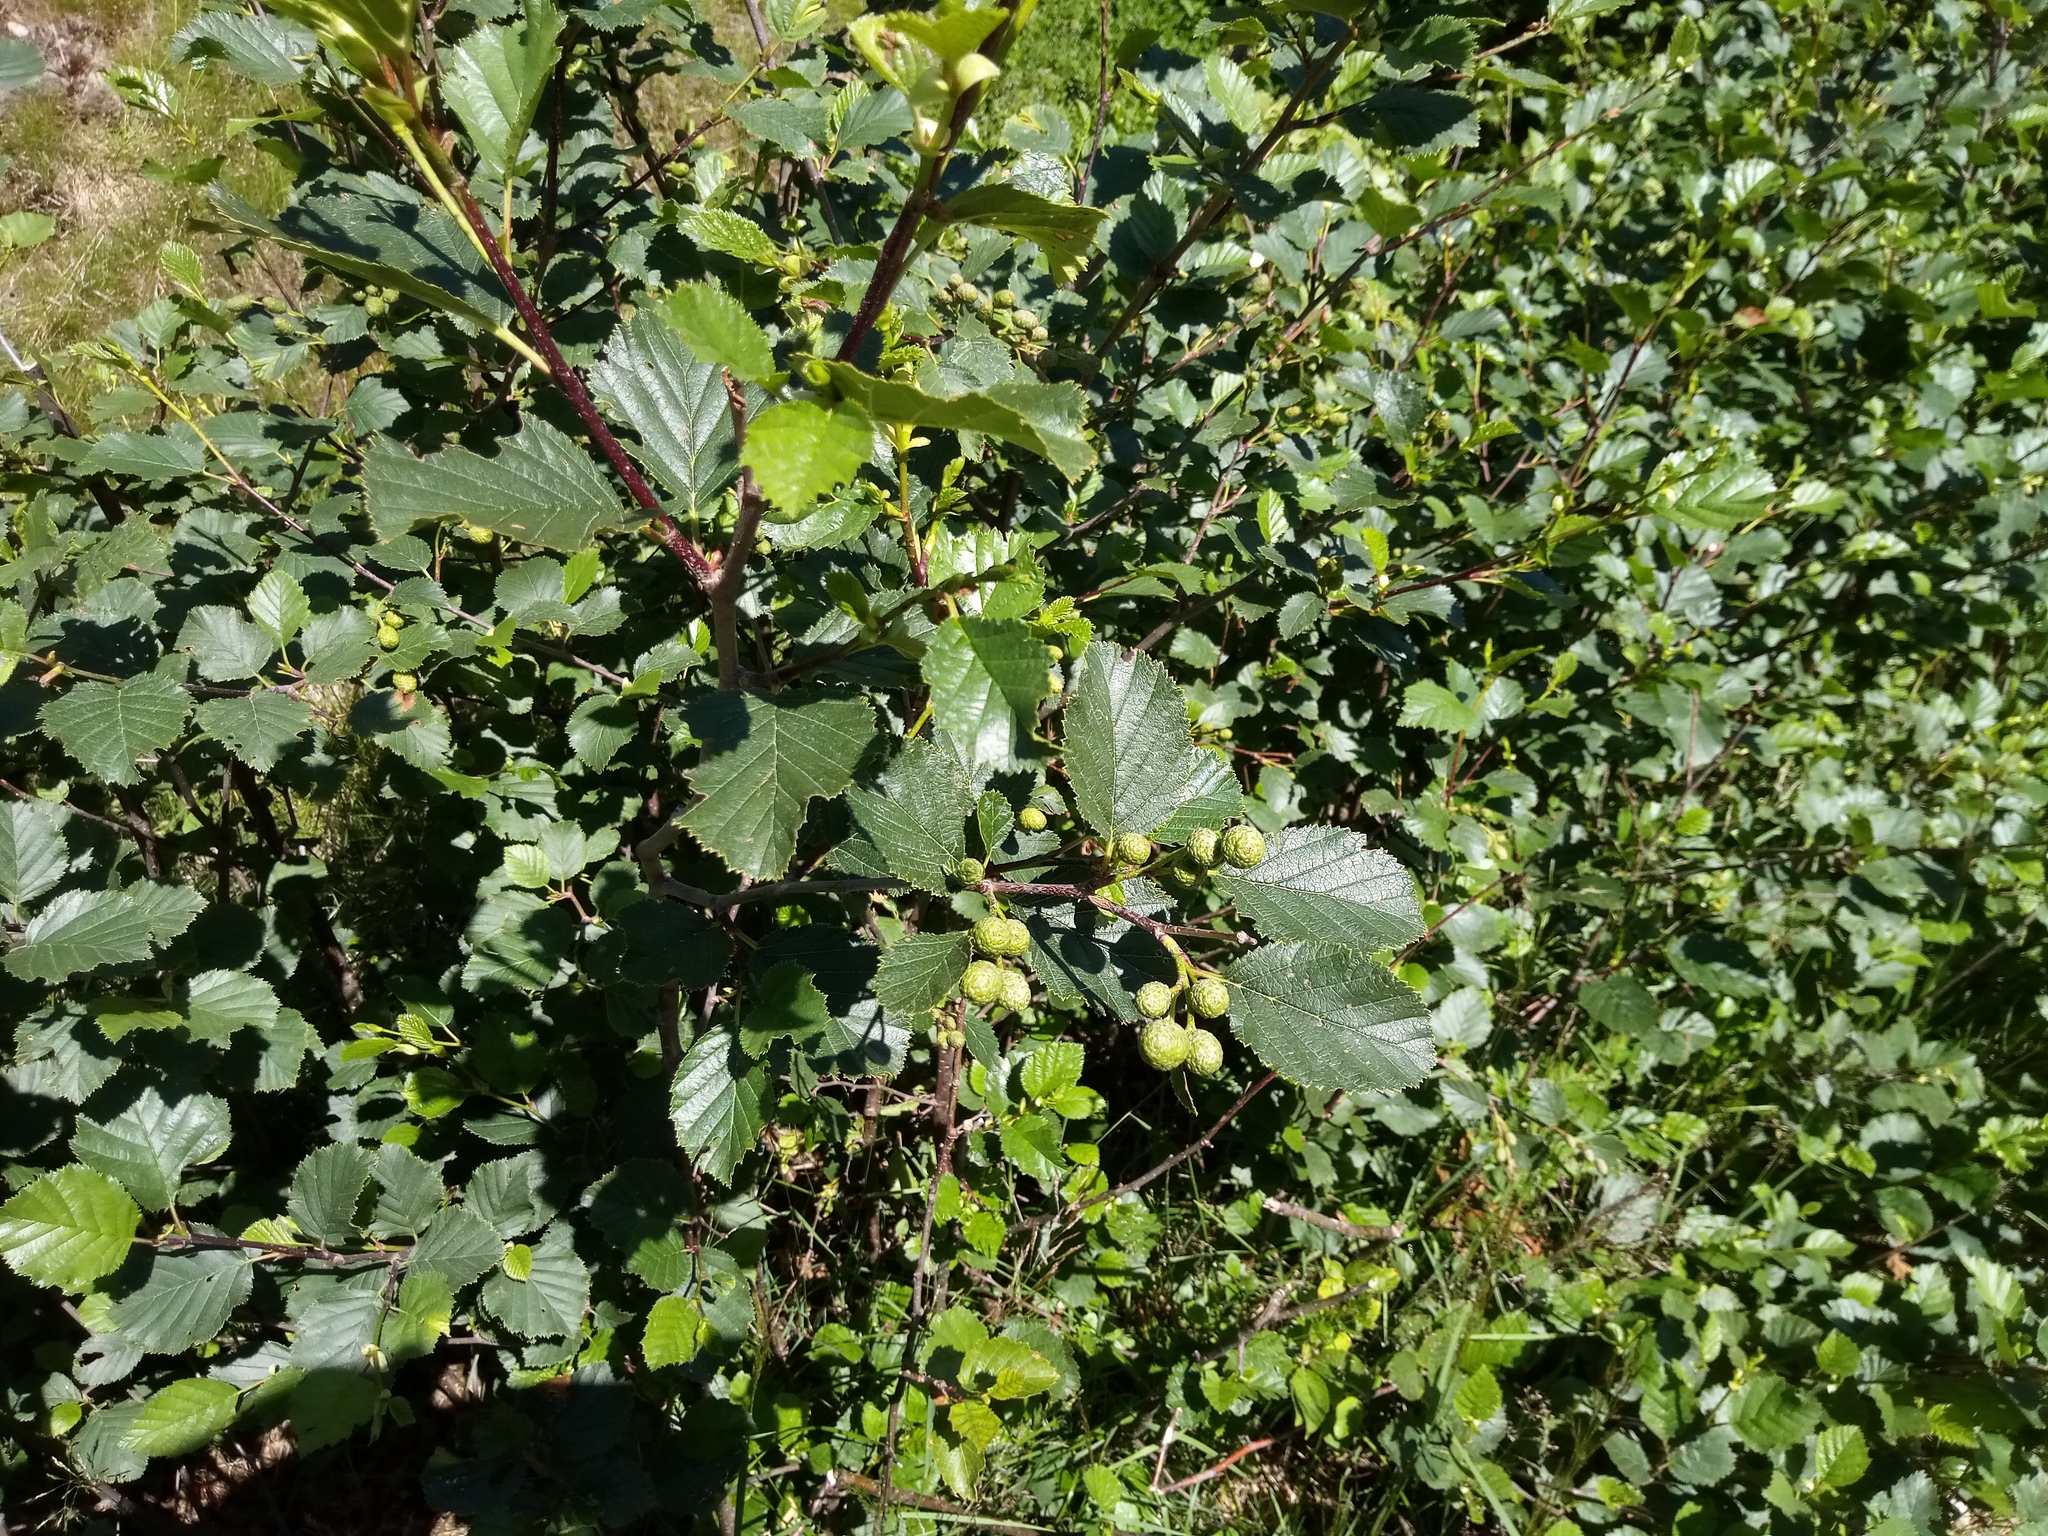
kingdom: Plantae
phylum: Tracheophyta
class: Magnoliopsida
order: Fagales
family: Betulaceae
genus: Alnus
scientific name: Alnus alnobetula
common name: Green alder
